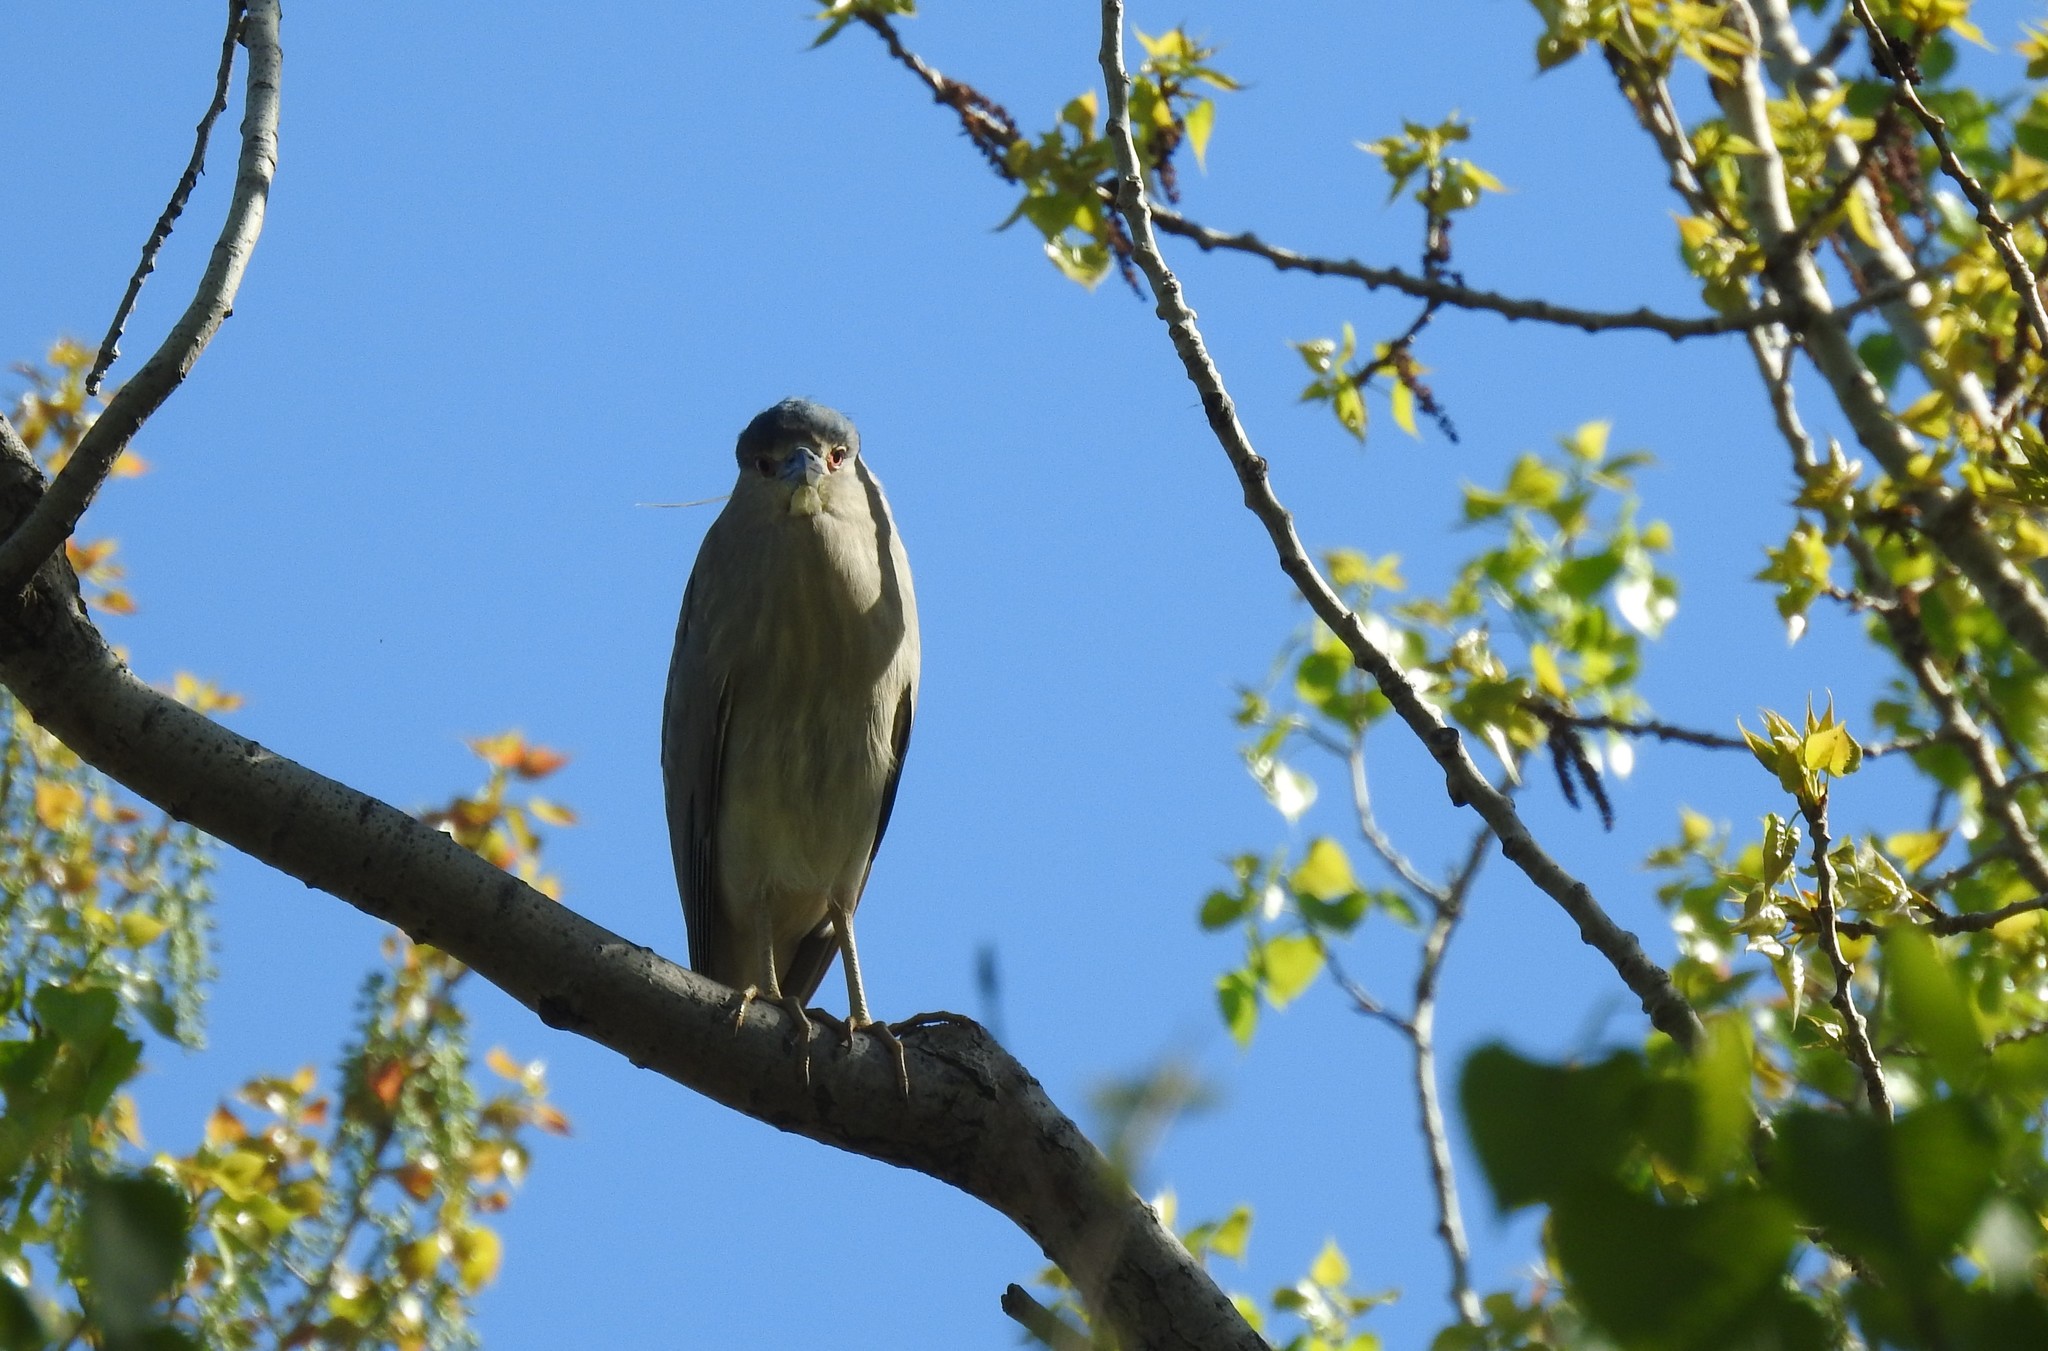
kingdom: Animalia
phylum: Chordata
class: Aves
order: Pelecaniformes
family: Ardeidae
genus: Nycticorax
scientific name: Nycticorax nycticorax
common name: Black-crowned night heron
